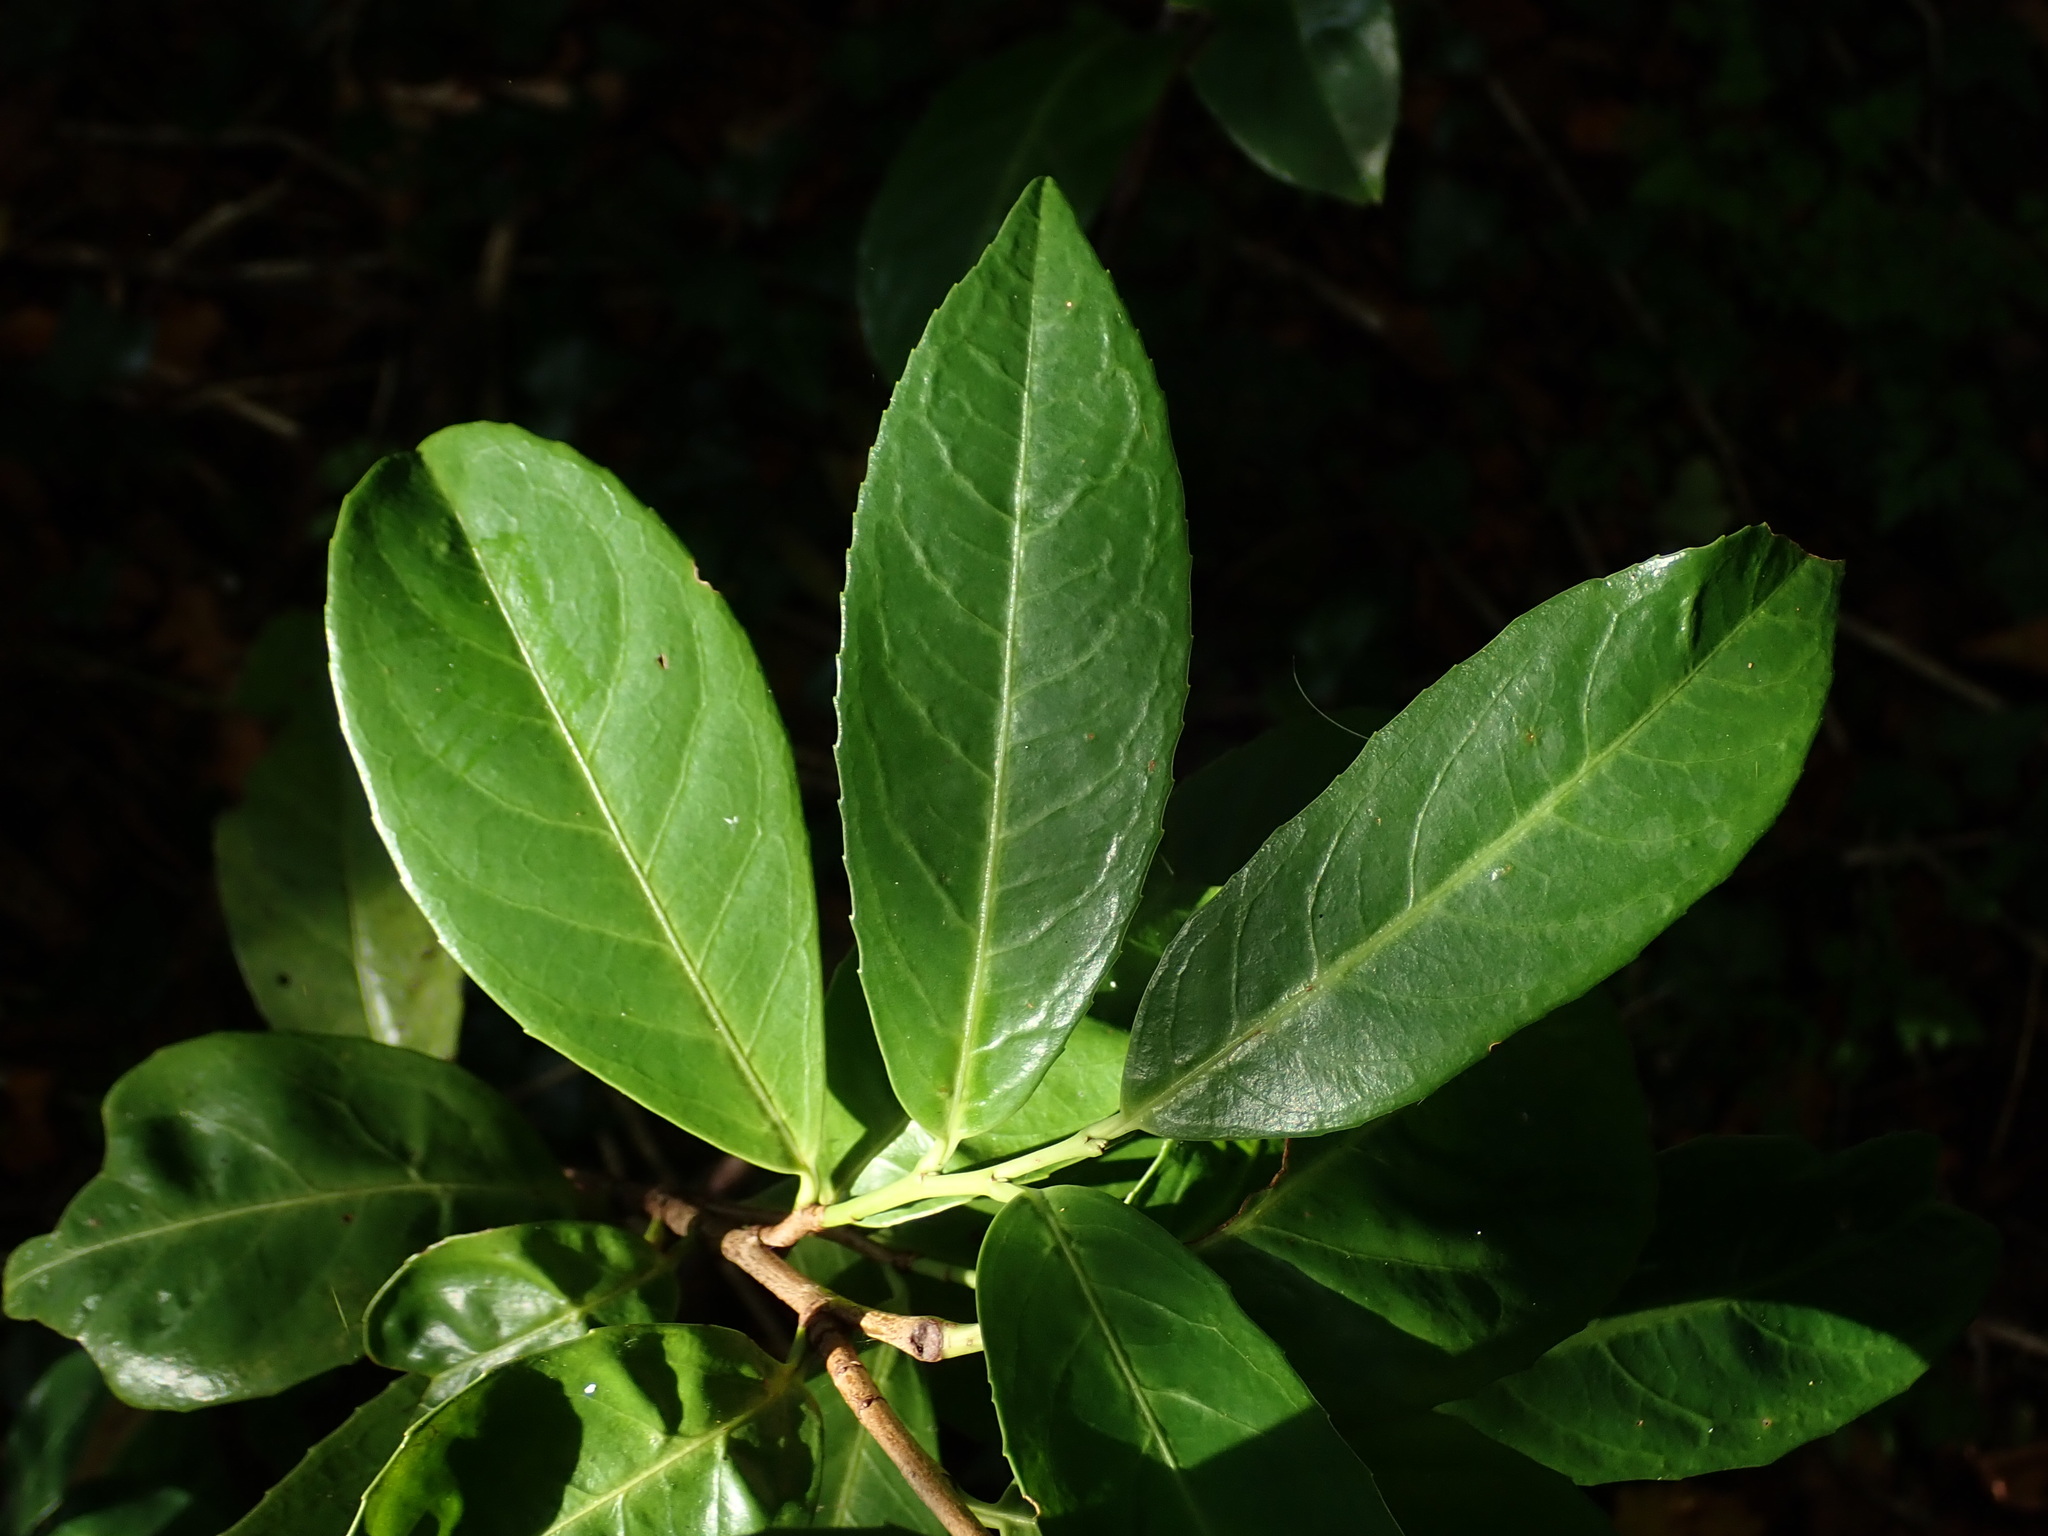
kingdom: Plantae
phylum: Tracheophyta
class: Magnoliopsida
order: Rosales
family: Rosaceae
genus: Prunus
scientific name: Prunus laurocerasus
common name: Cherry laurel
